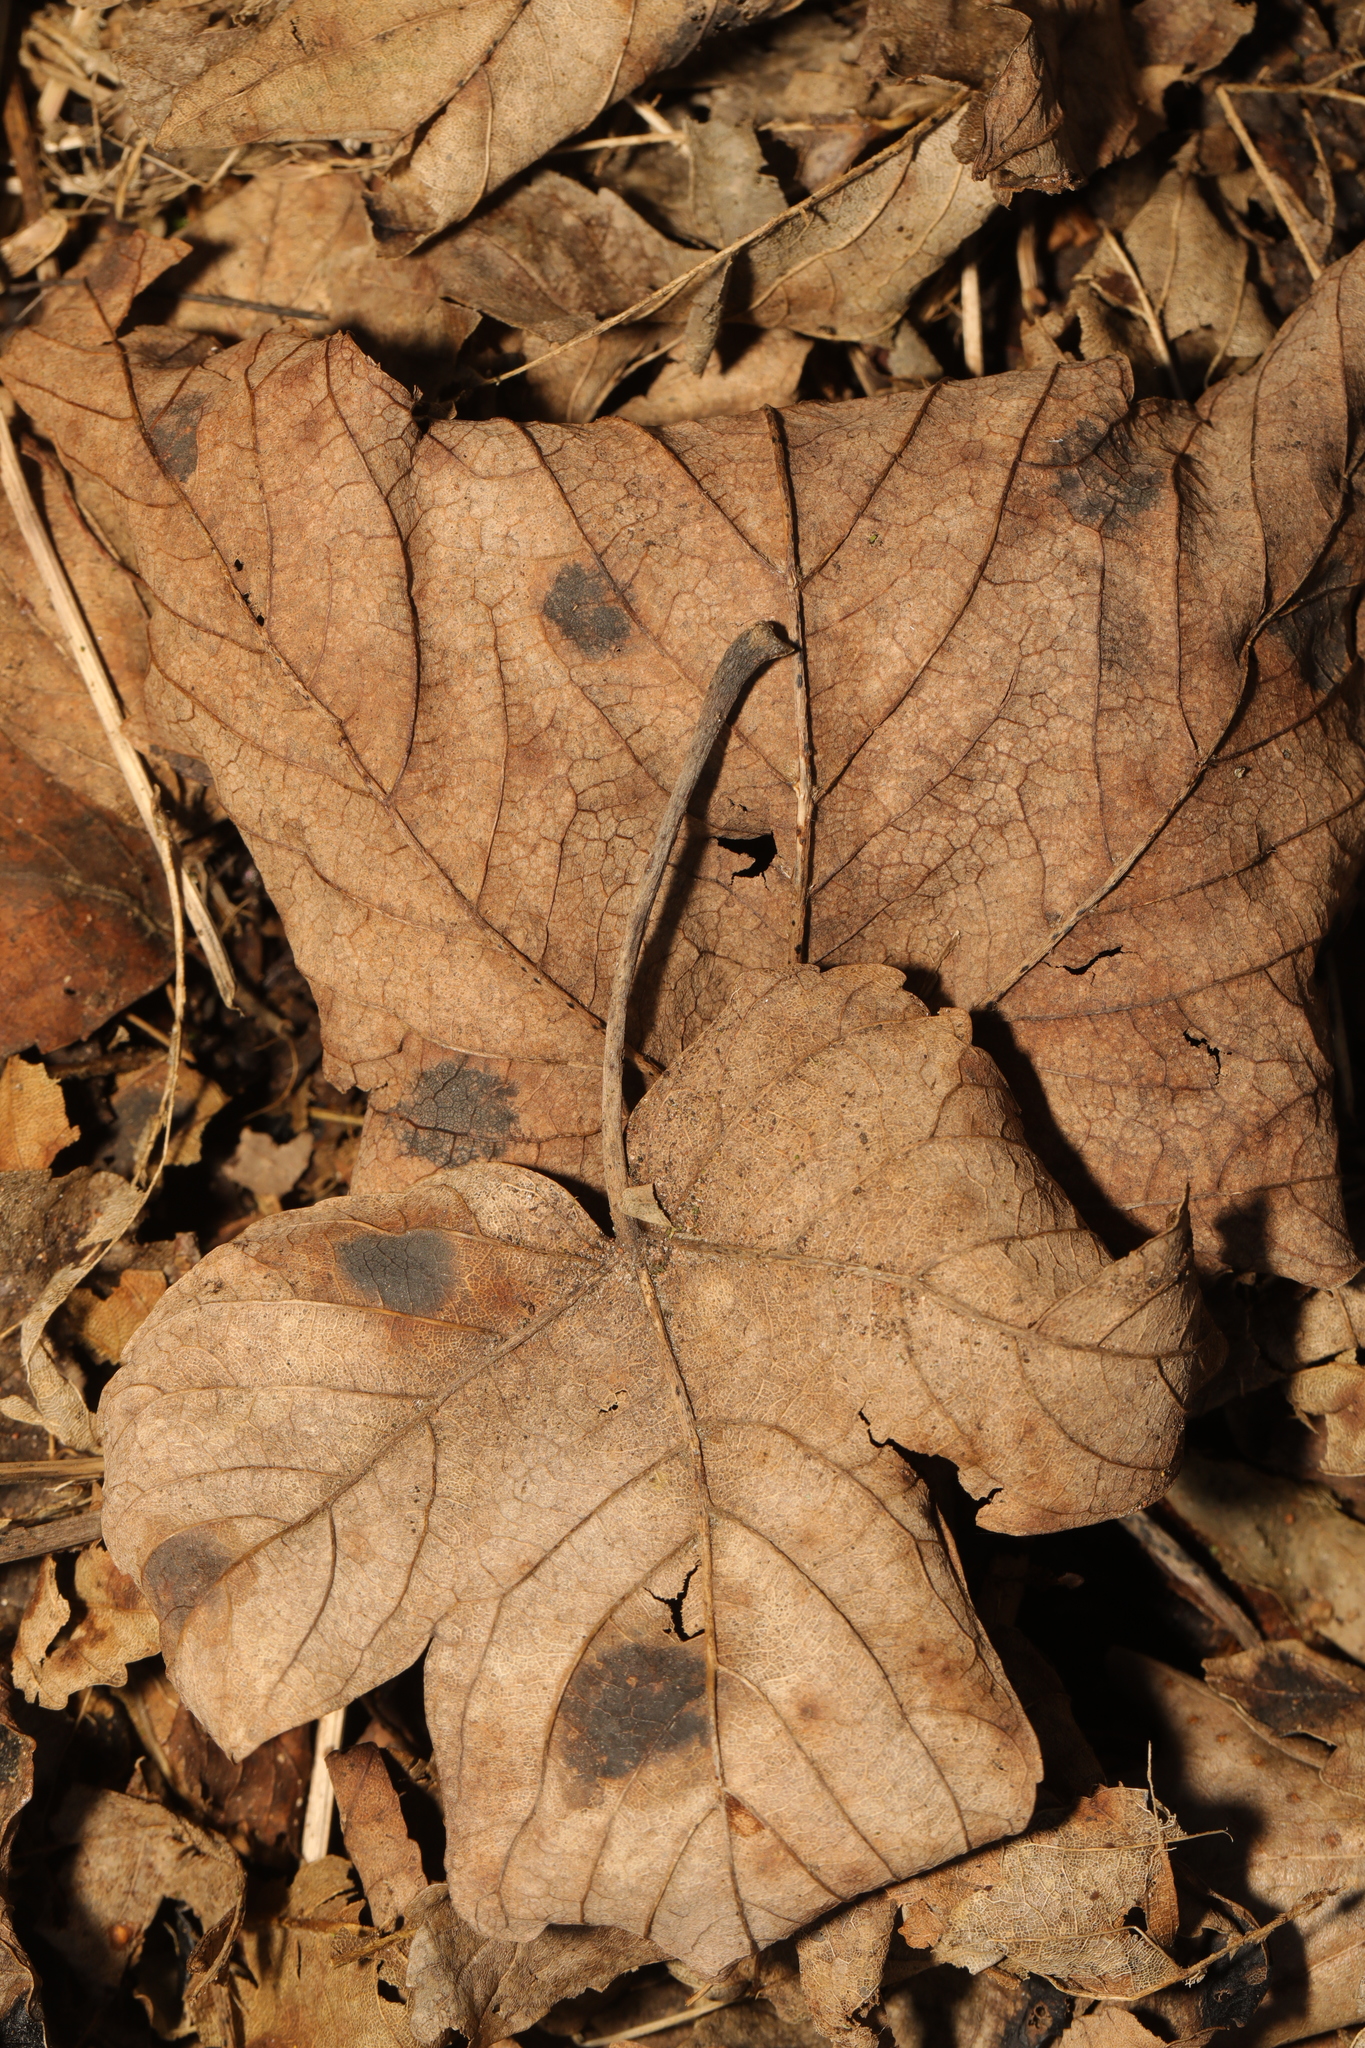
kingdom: Fungi
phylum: Ascomycota
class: Leotiomycetes
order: Rhytismatales
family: Rhytismataceae
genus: Rhytisma
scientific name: Rhytisma acerinum
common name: European tar spot
